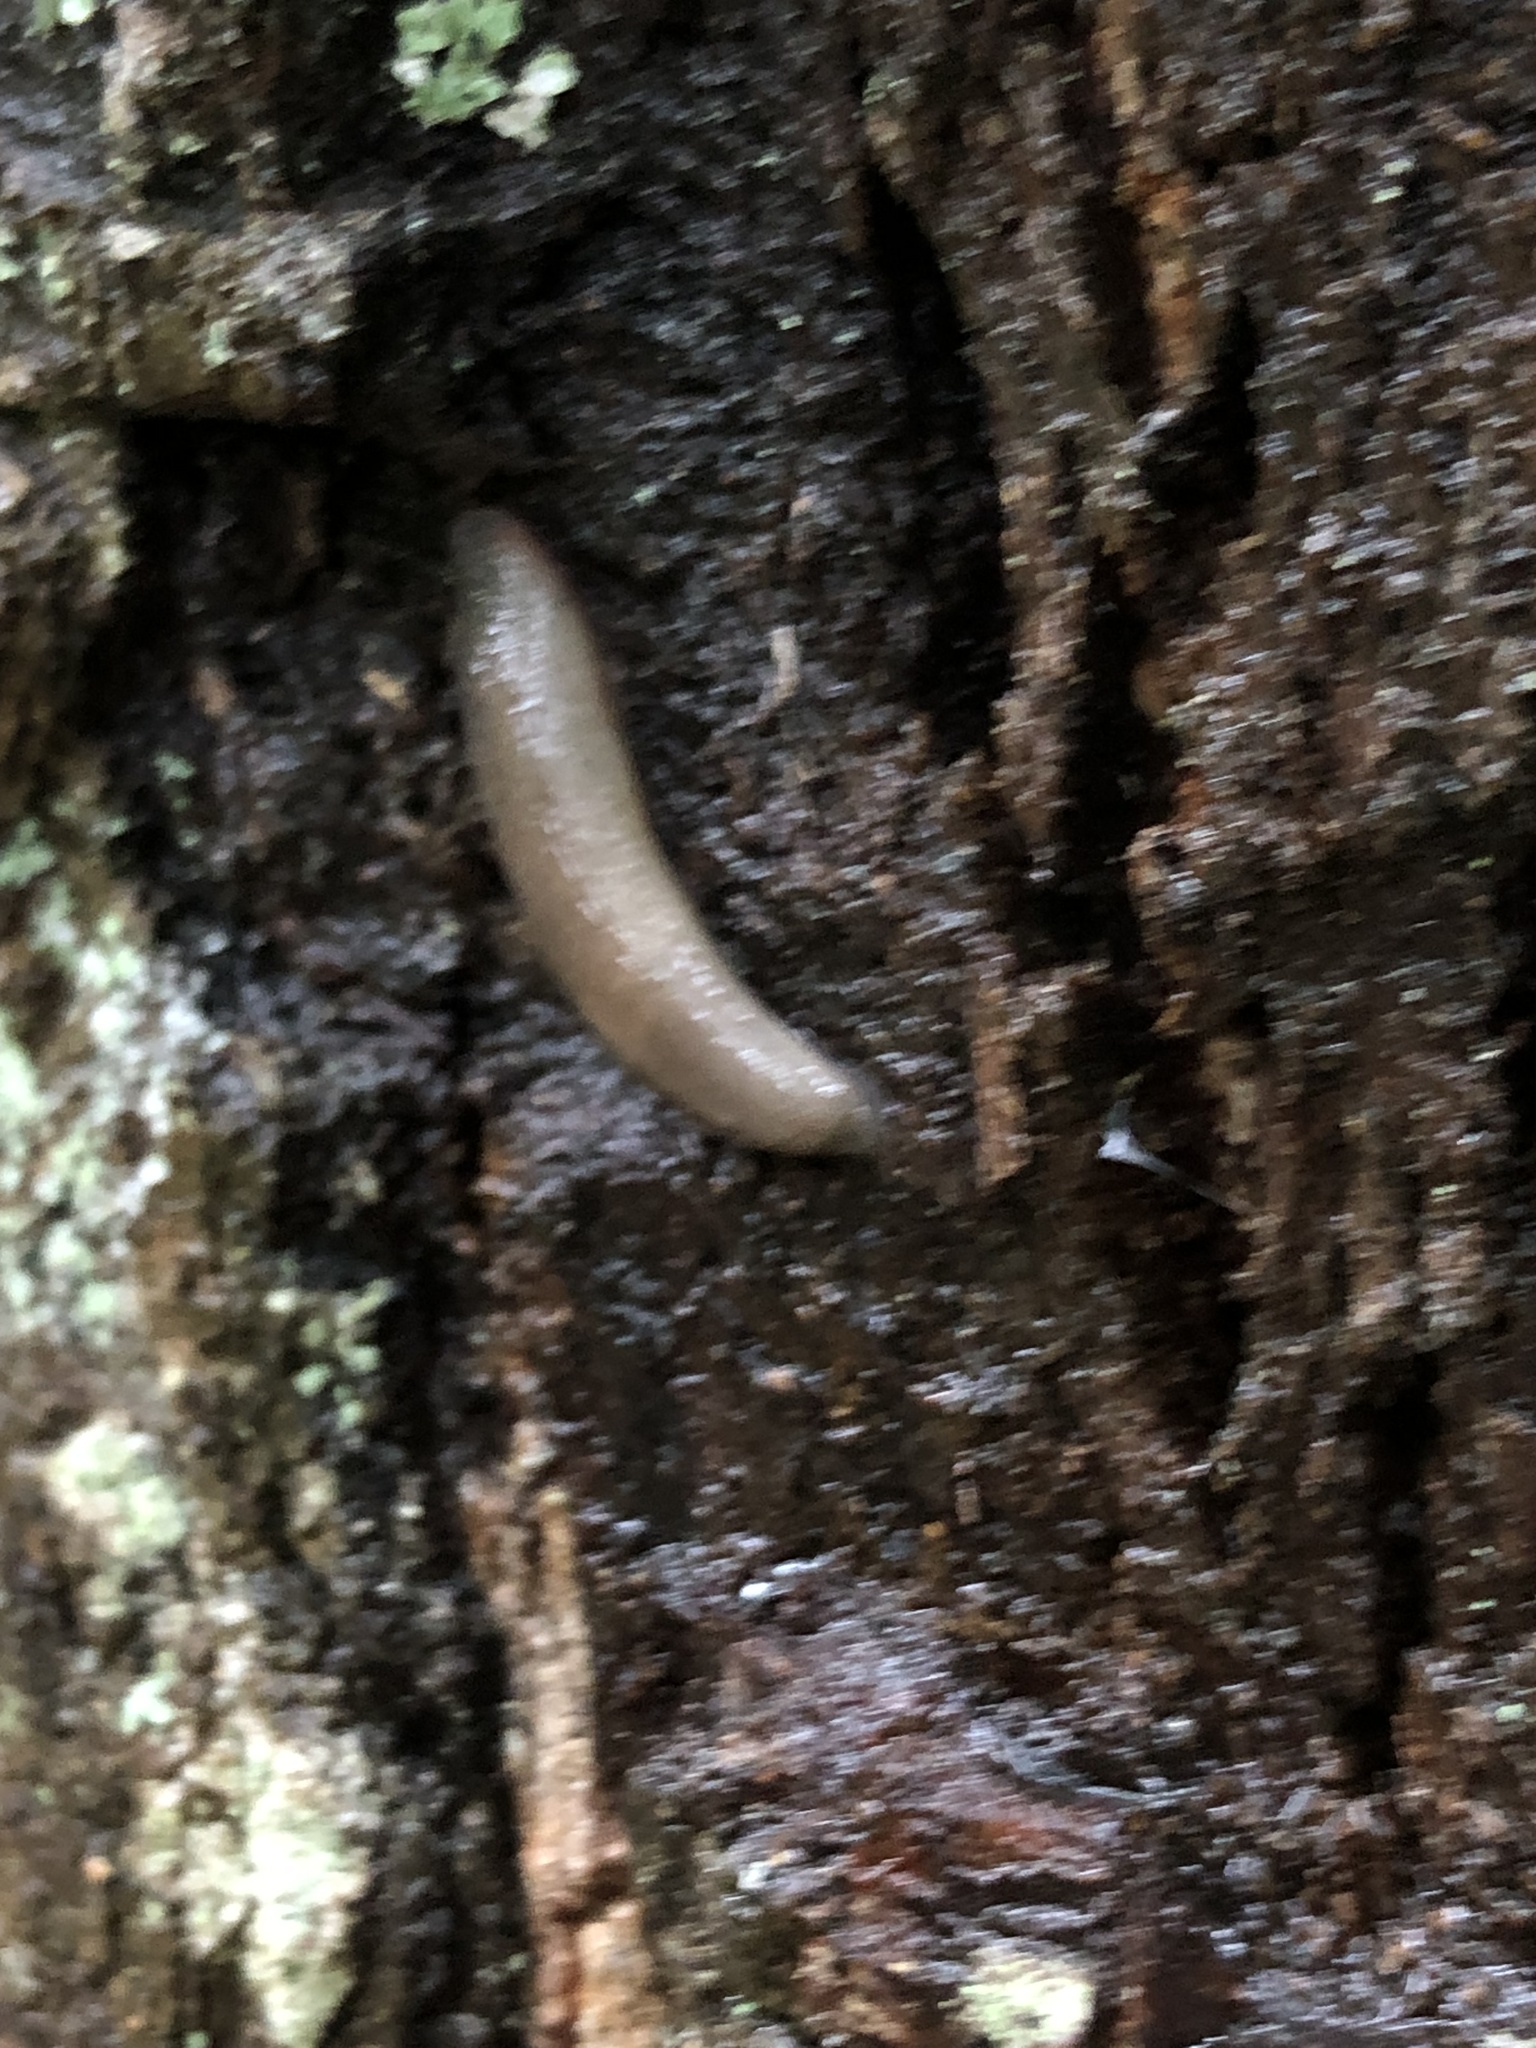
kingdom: Animalia
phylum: Mollusca
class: Gastropoda
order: Stylommatophora
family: Philomycidae
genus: Pallifera
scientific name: Pallifera dorsalis
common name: Pale mantleslug
